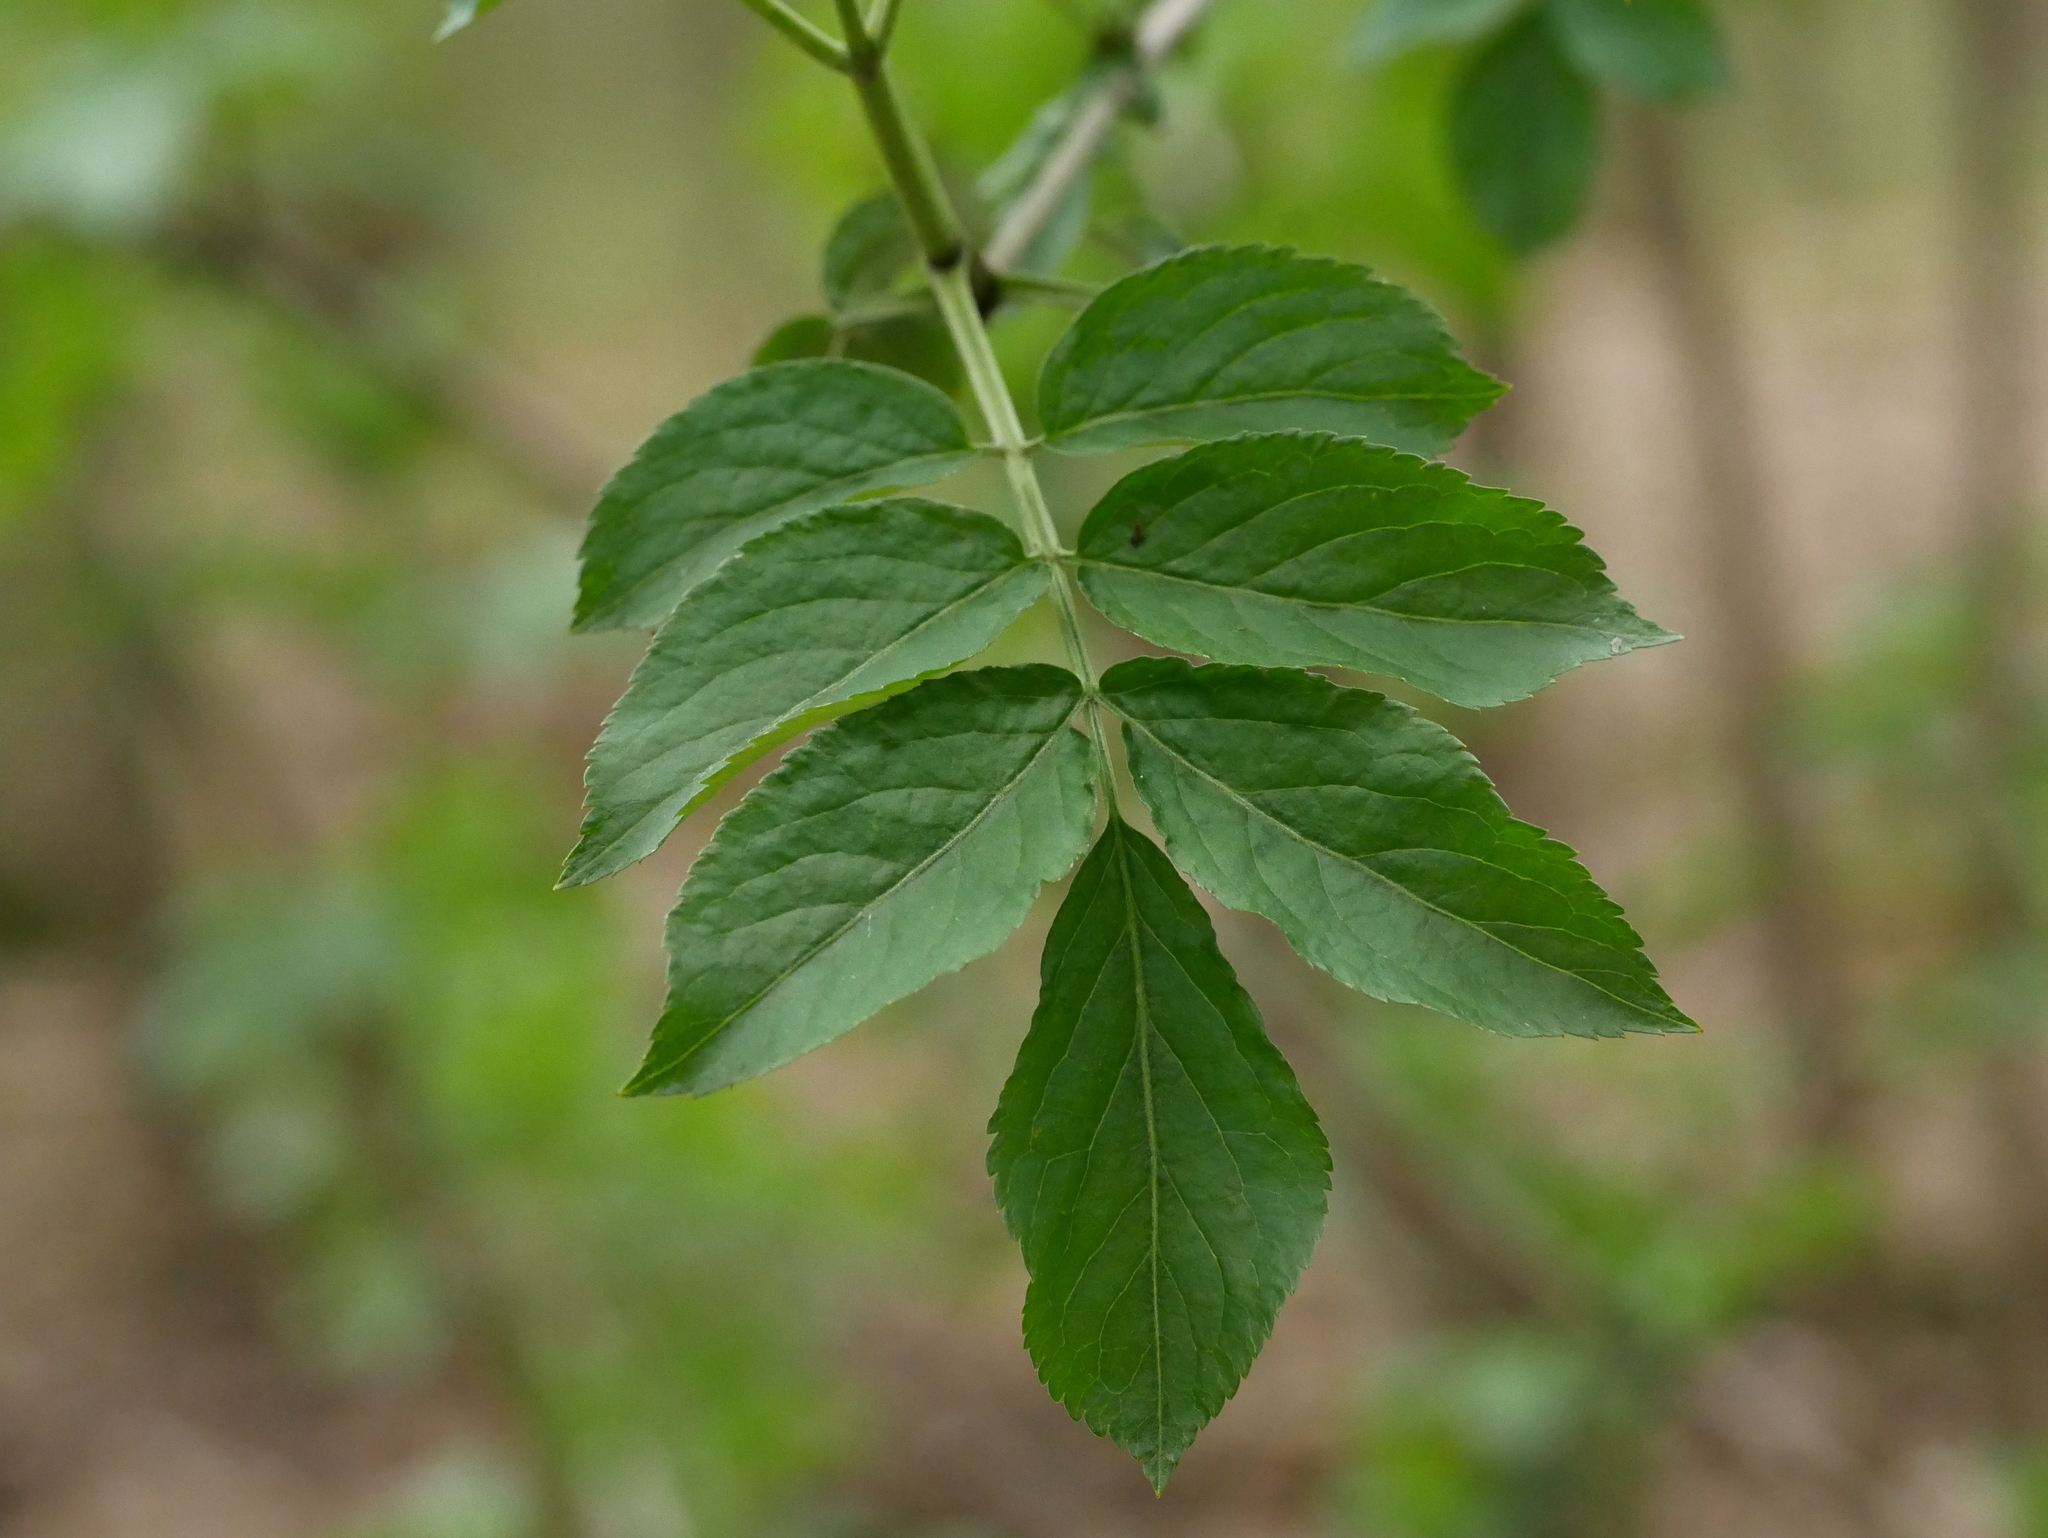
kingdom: Plantae
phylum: Tracheophyta
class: Magnoliopsida
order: Dipsacales
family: Viburnaceae
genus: Sambucus
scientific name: Sambucus nigra
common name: Elder
